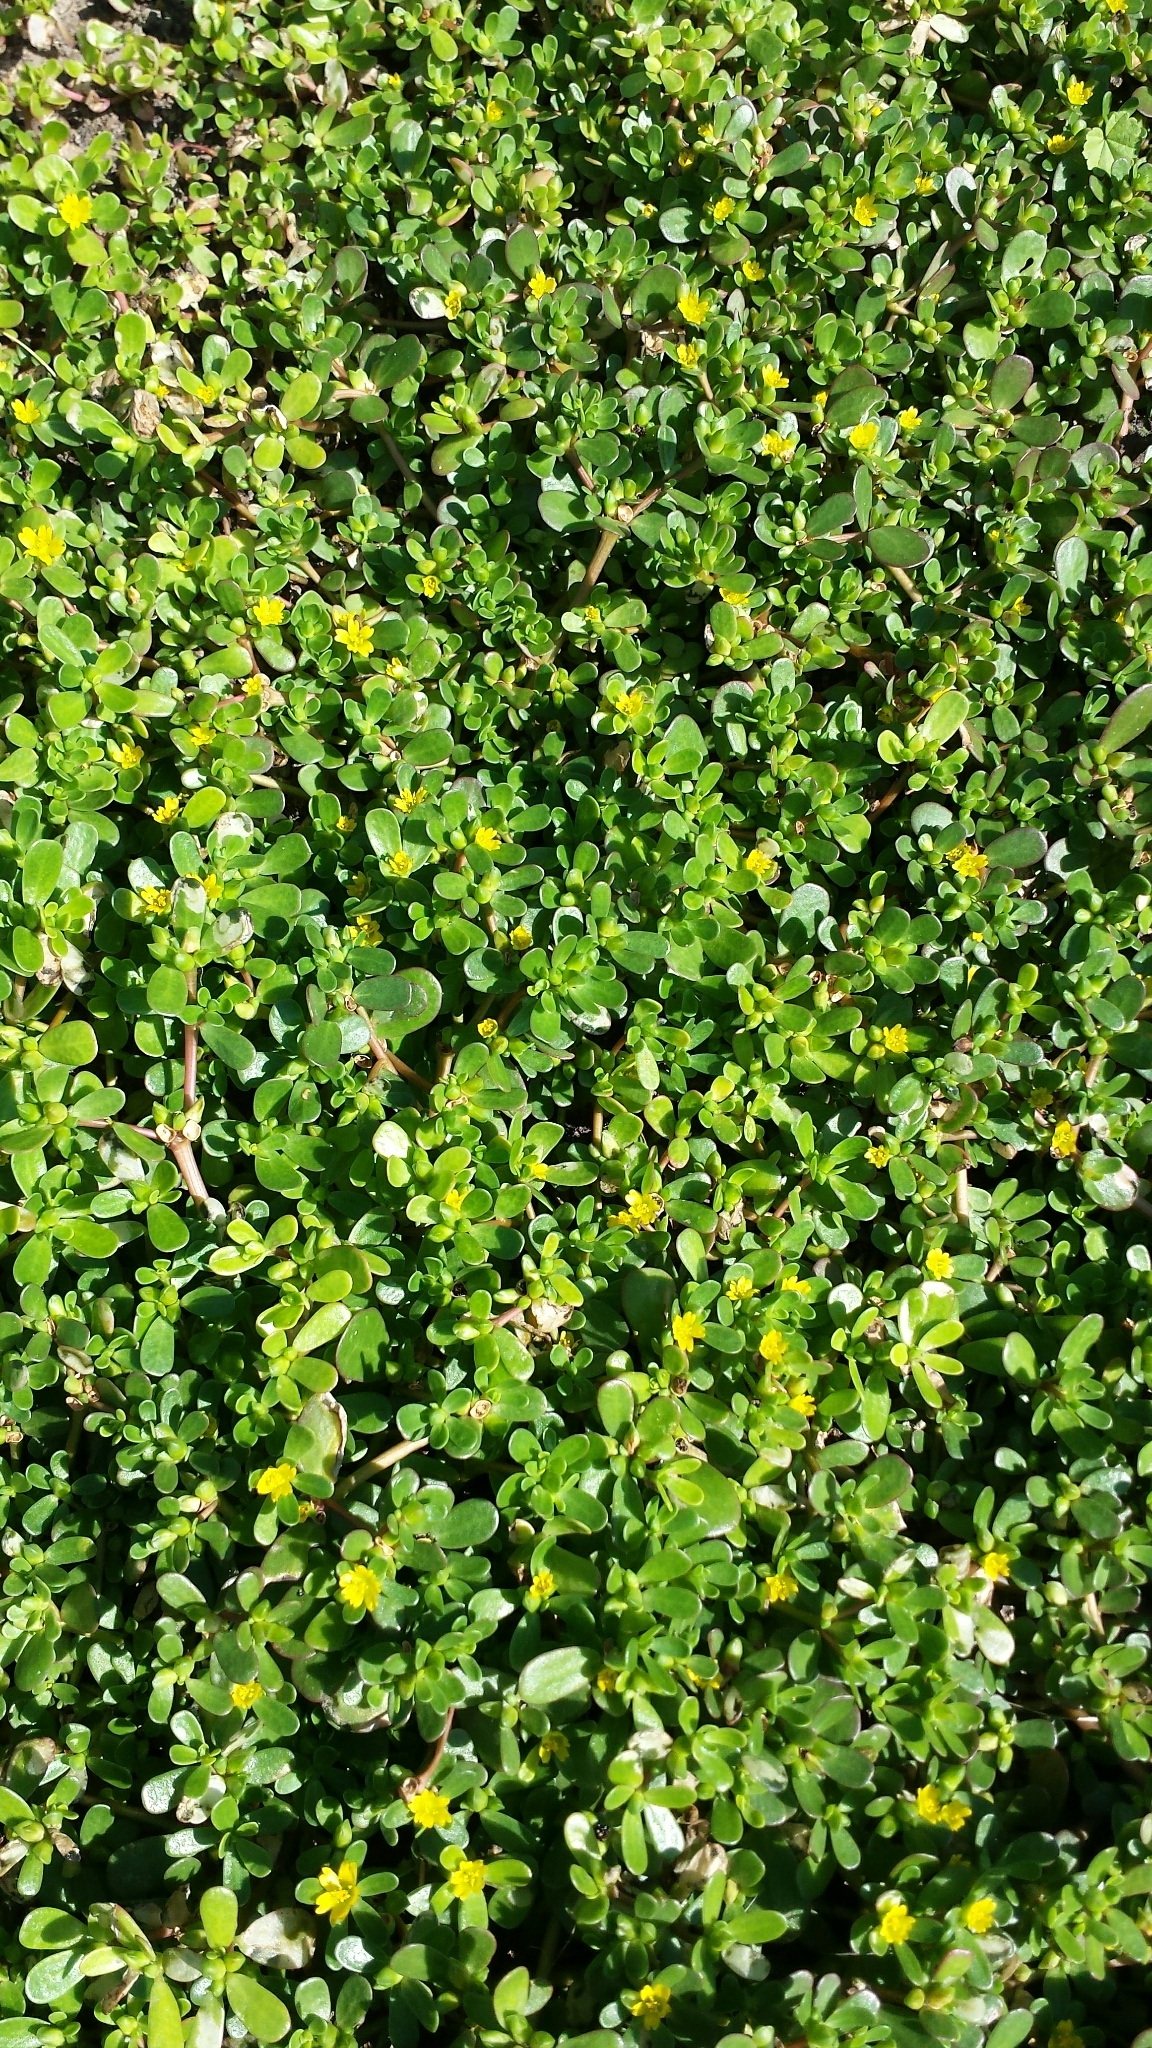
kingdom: Plantae
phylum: Tracheophyta
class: Magnoliopsida
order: Caryophyllales
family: Portulacaceae
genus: Portulaca
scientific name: Portulaca oleracea
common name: Common purslane
